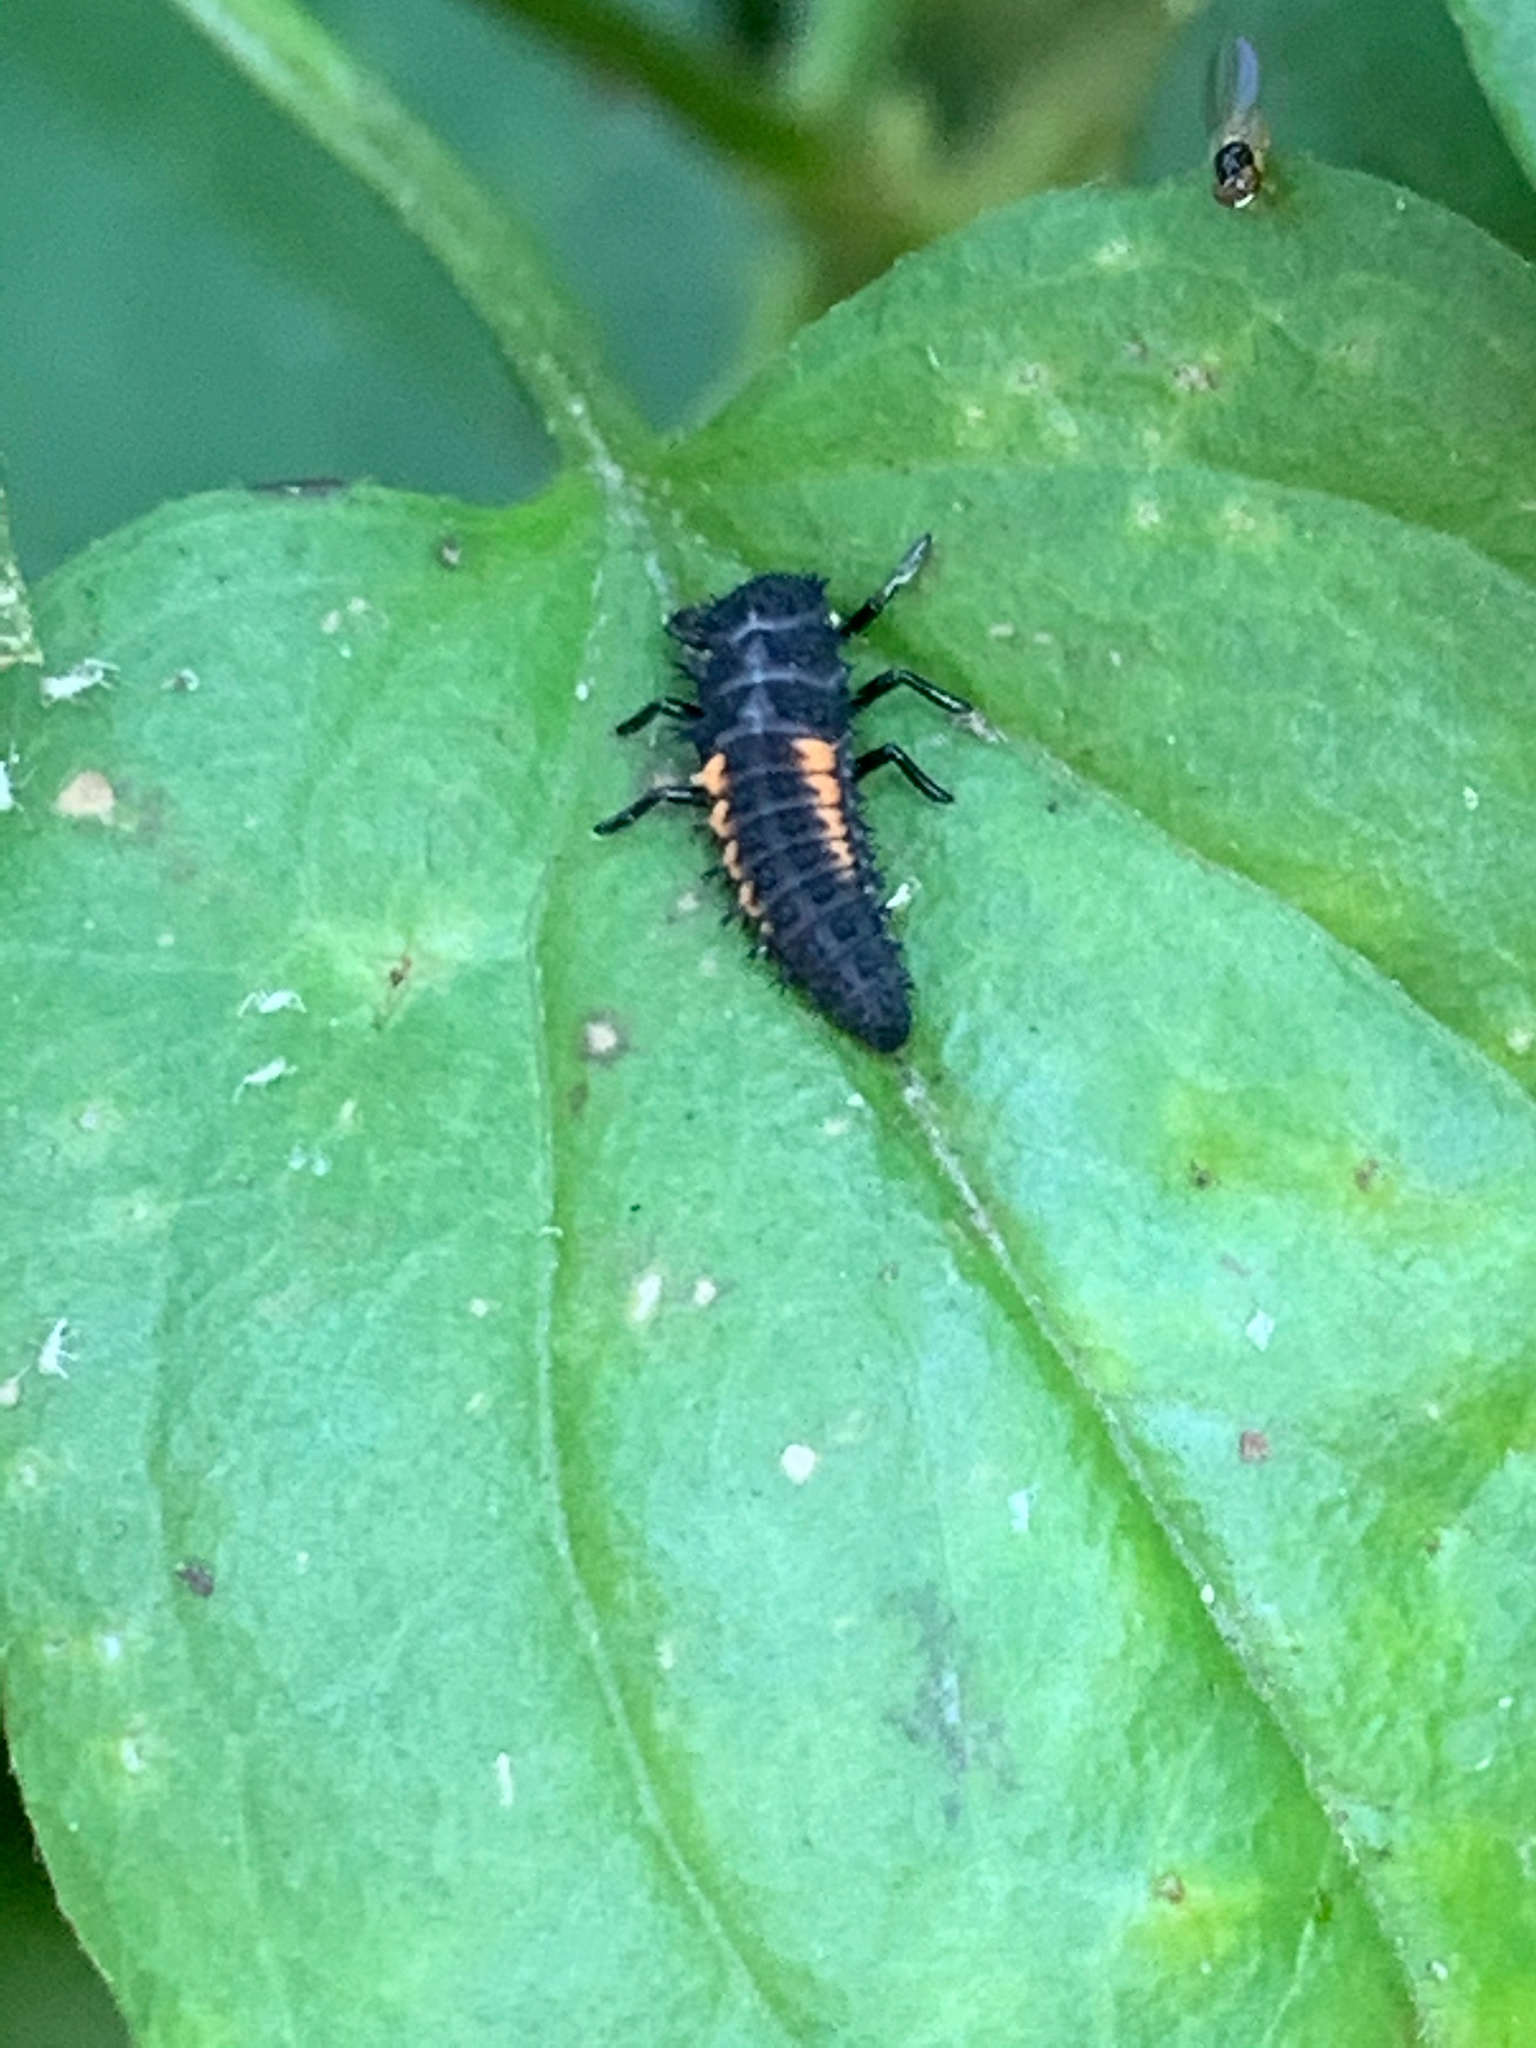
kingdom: Animalia
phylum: Arthropoda
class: Insecta
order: Coleoptera
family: Coccinellidae
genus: Harmonia
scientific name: Harmonia axyridis
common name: Harlequin ladybird
